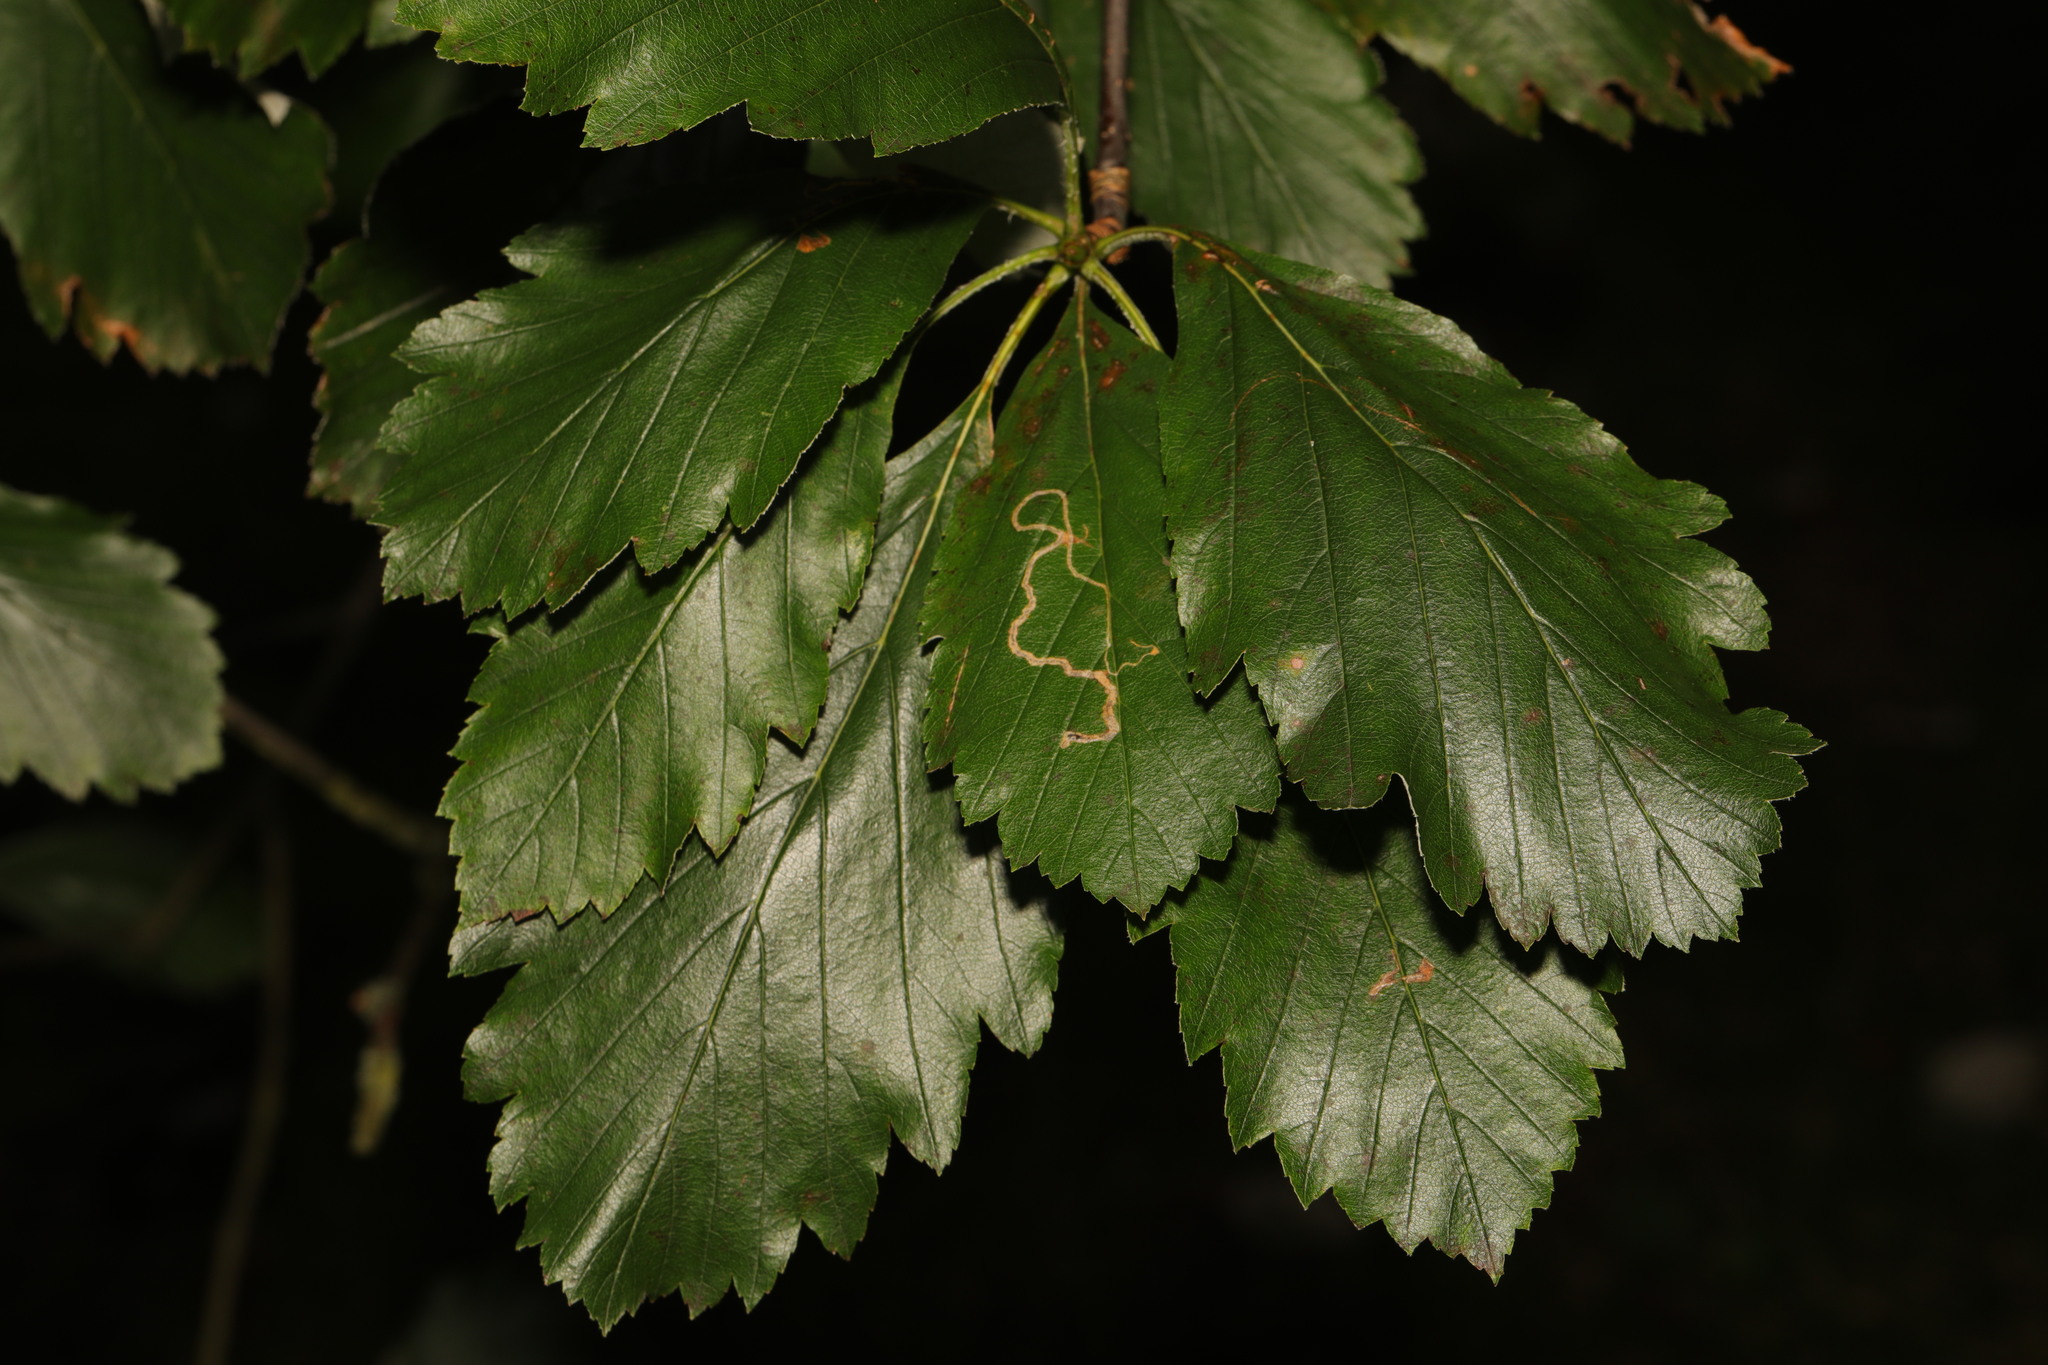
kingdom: Plantae
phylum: Tracheophyta
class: Magnoliopsida
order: Rosales
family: Rosaceae
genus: Scandosorbus
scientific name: Scandosorbus intermedia
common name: Swedish whitebeam
